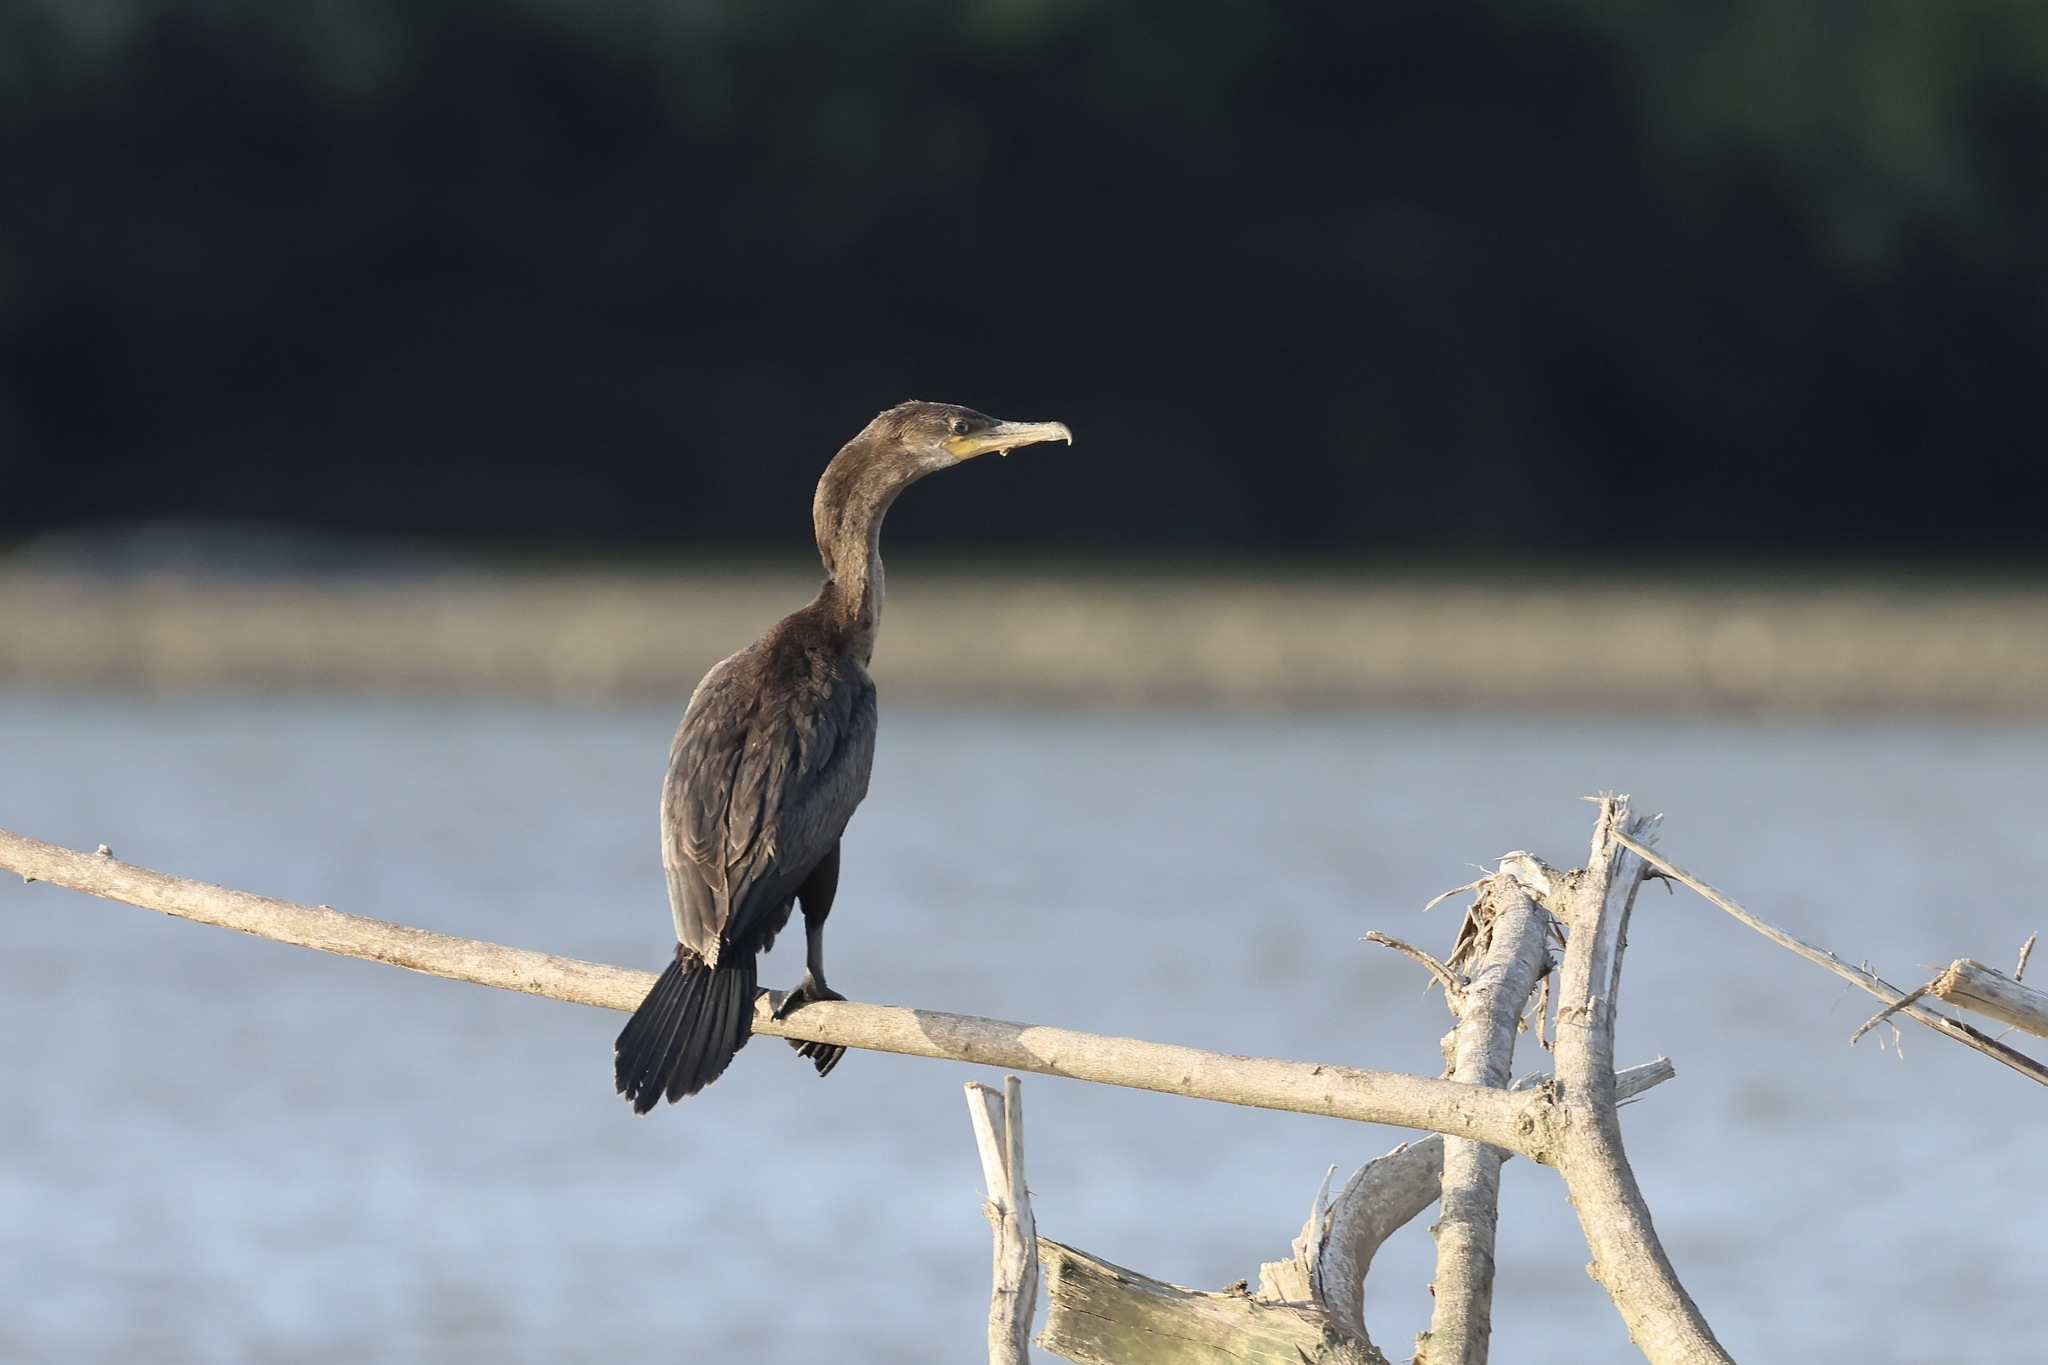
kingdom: Animalia
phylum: Chordata
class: Aves
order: Suliformes
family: Phalacrocoracidae
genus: Phalacrocorax
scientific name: Phalacrocorax brasilianus
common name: Neotropic cormorant
